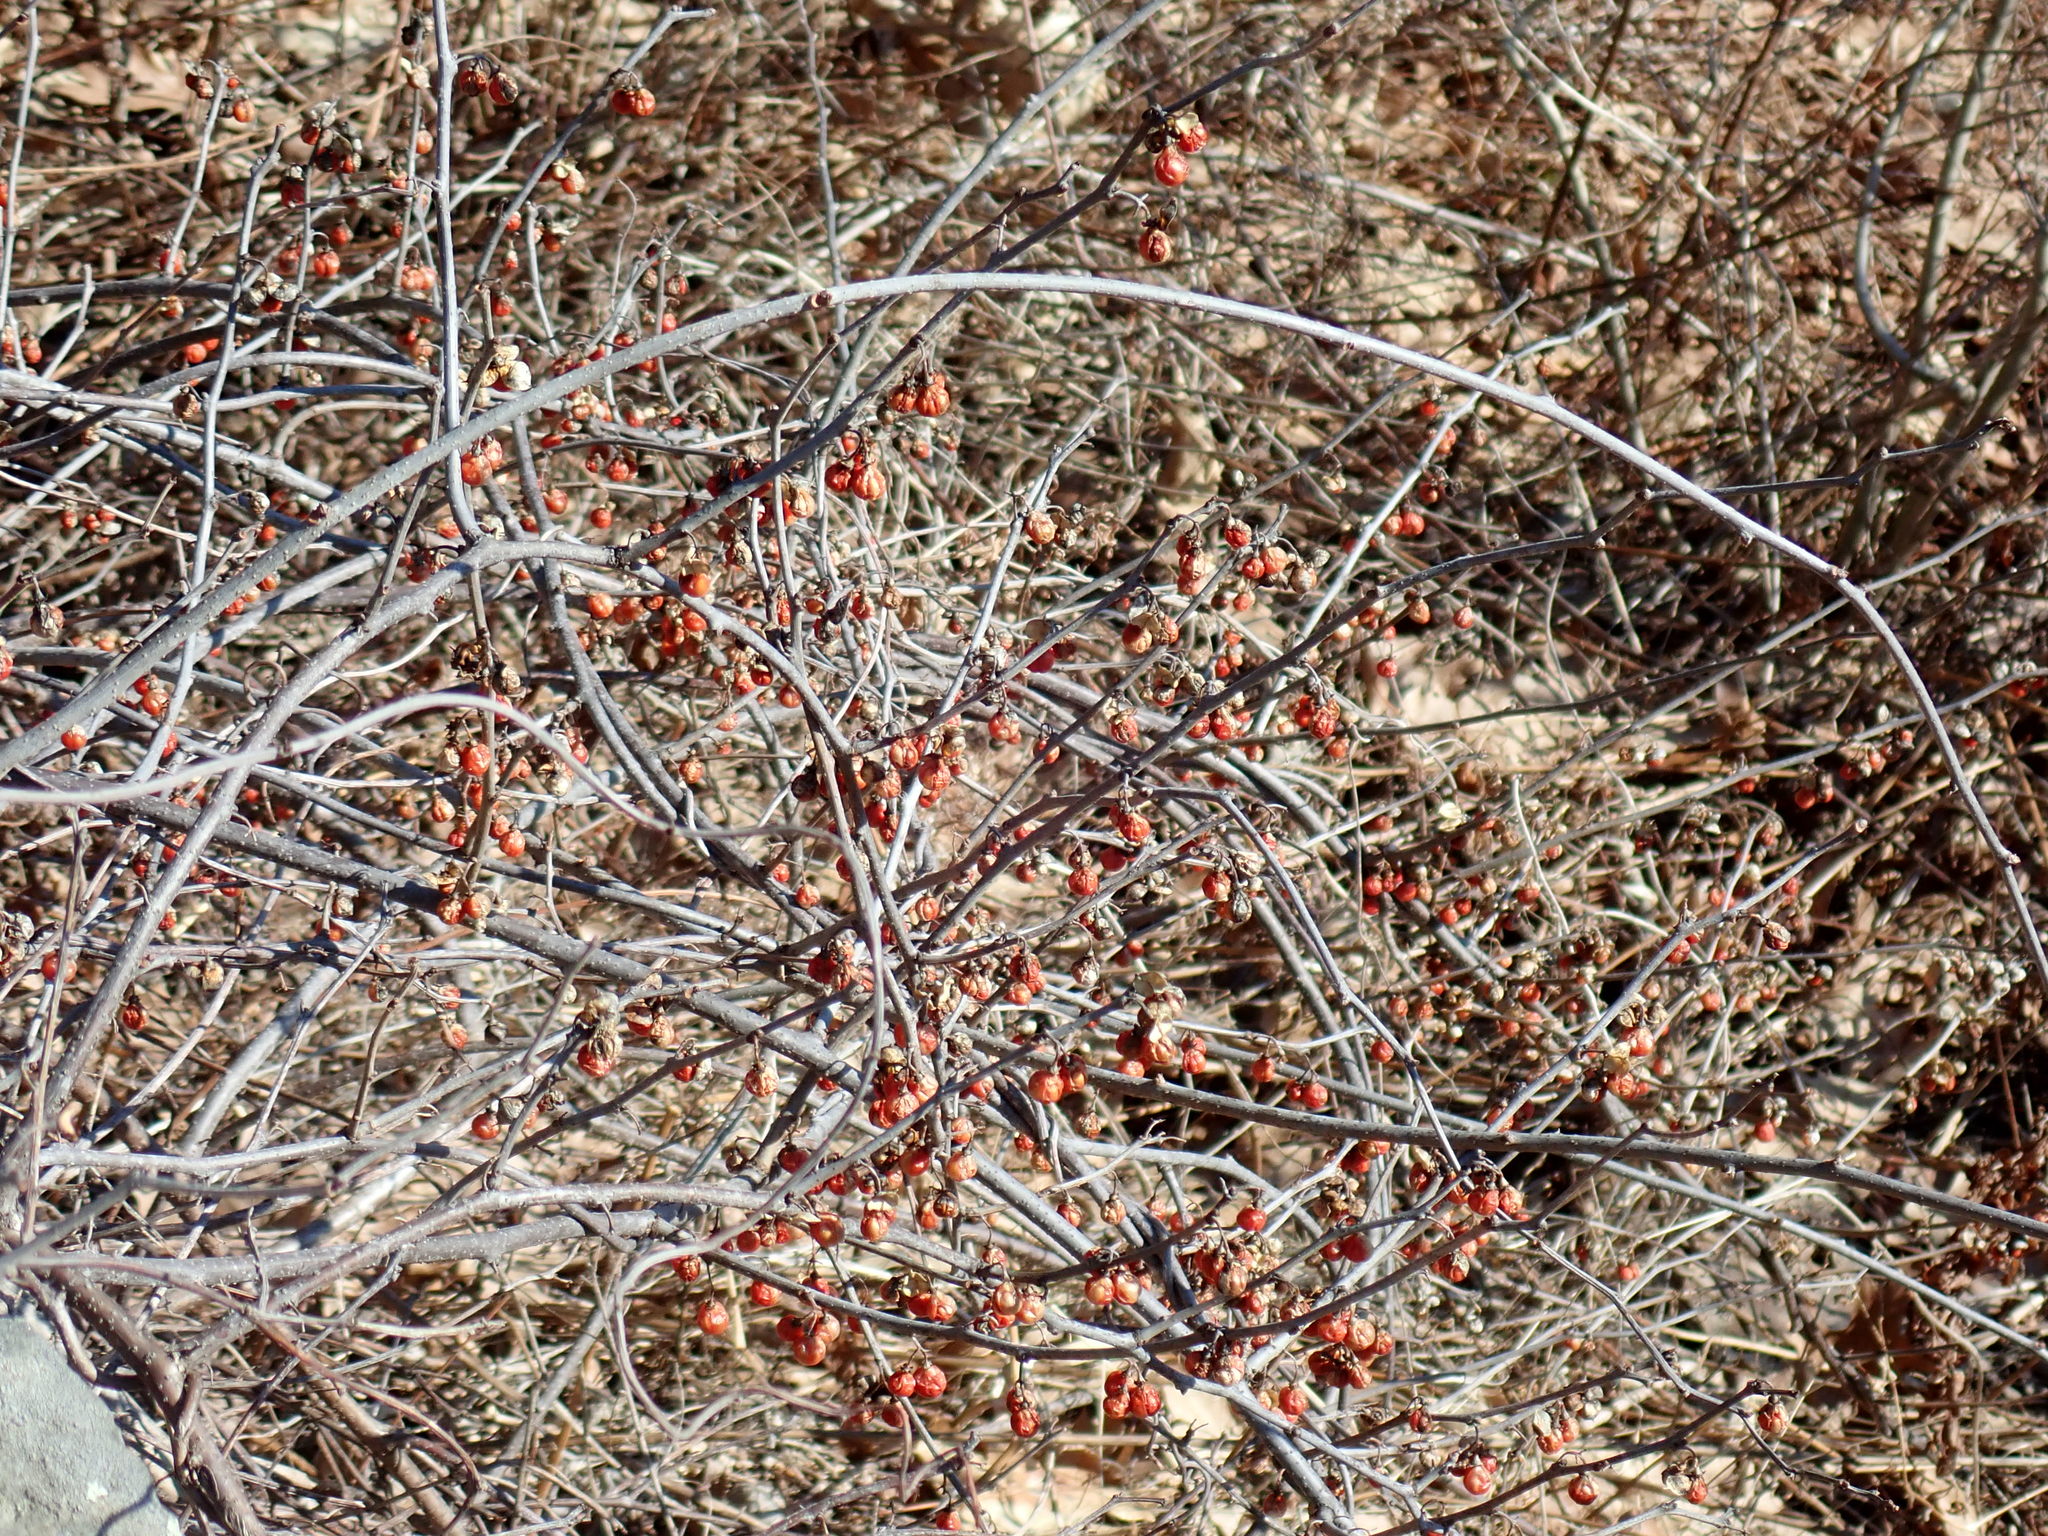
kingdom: Plantae
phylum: Tracheophyta
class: Magnoliopsida
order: Celastrales
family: Celastraceae
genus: Celastrus
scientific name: Celastrus orbiculatus
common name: Oriental bittersweet
